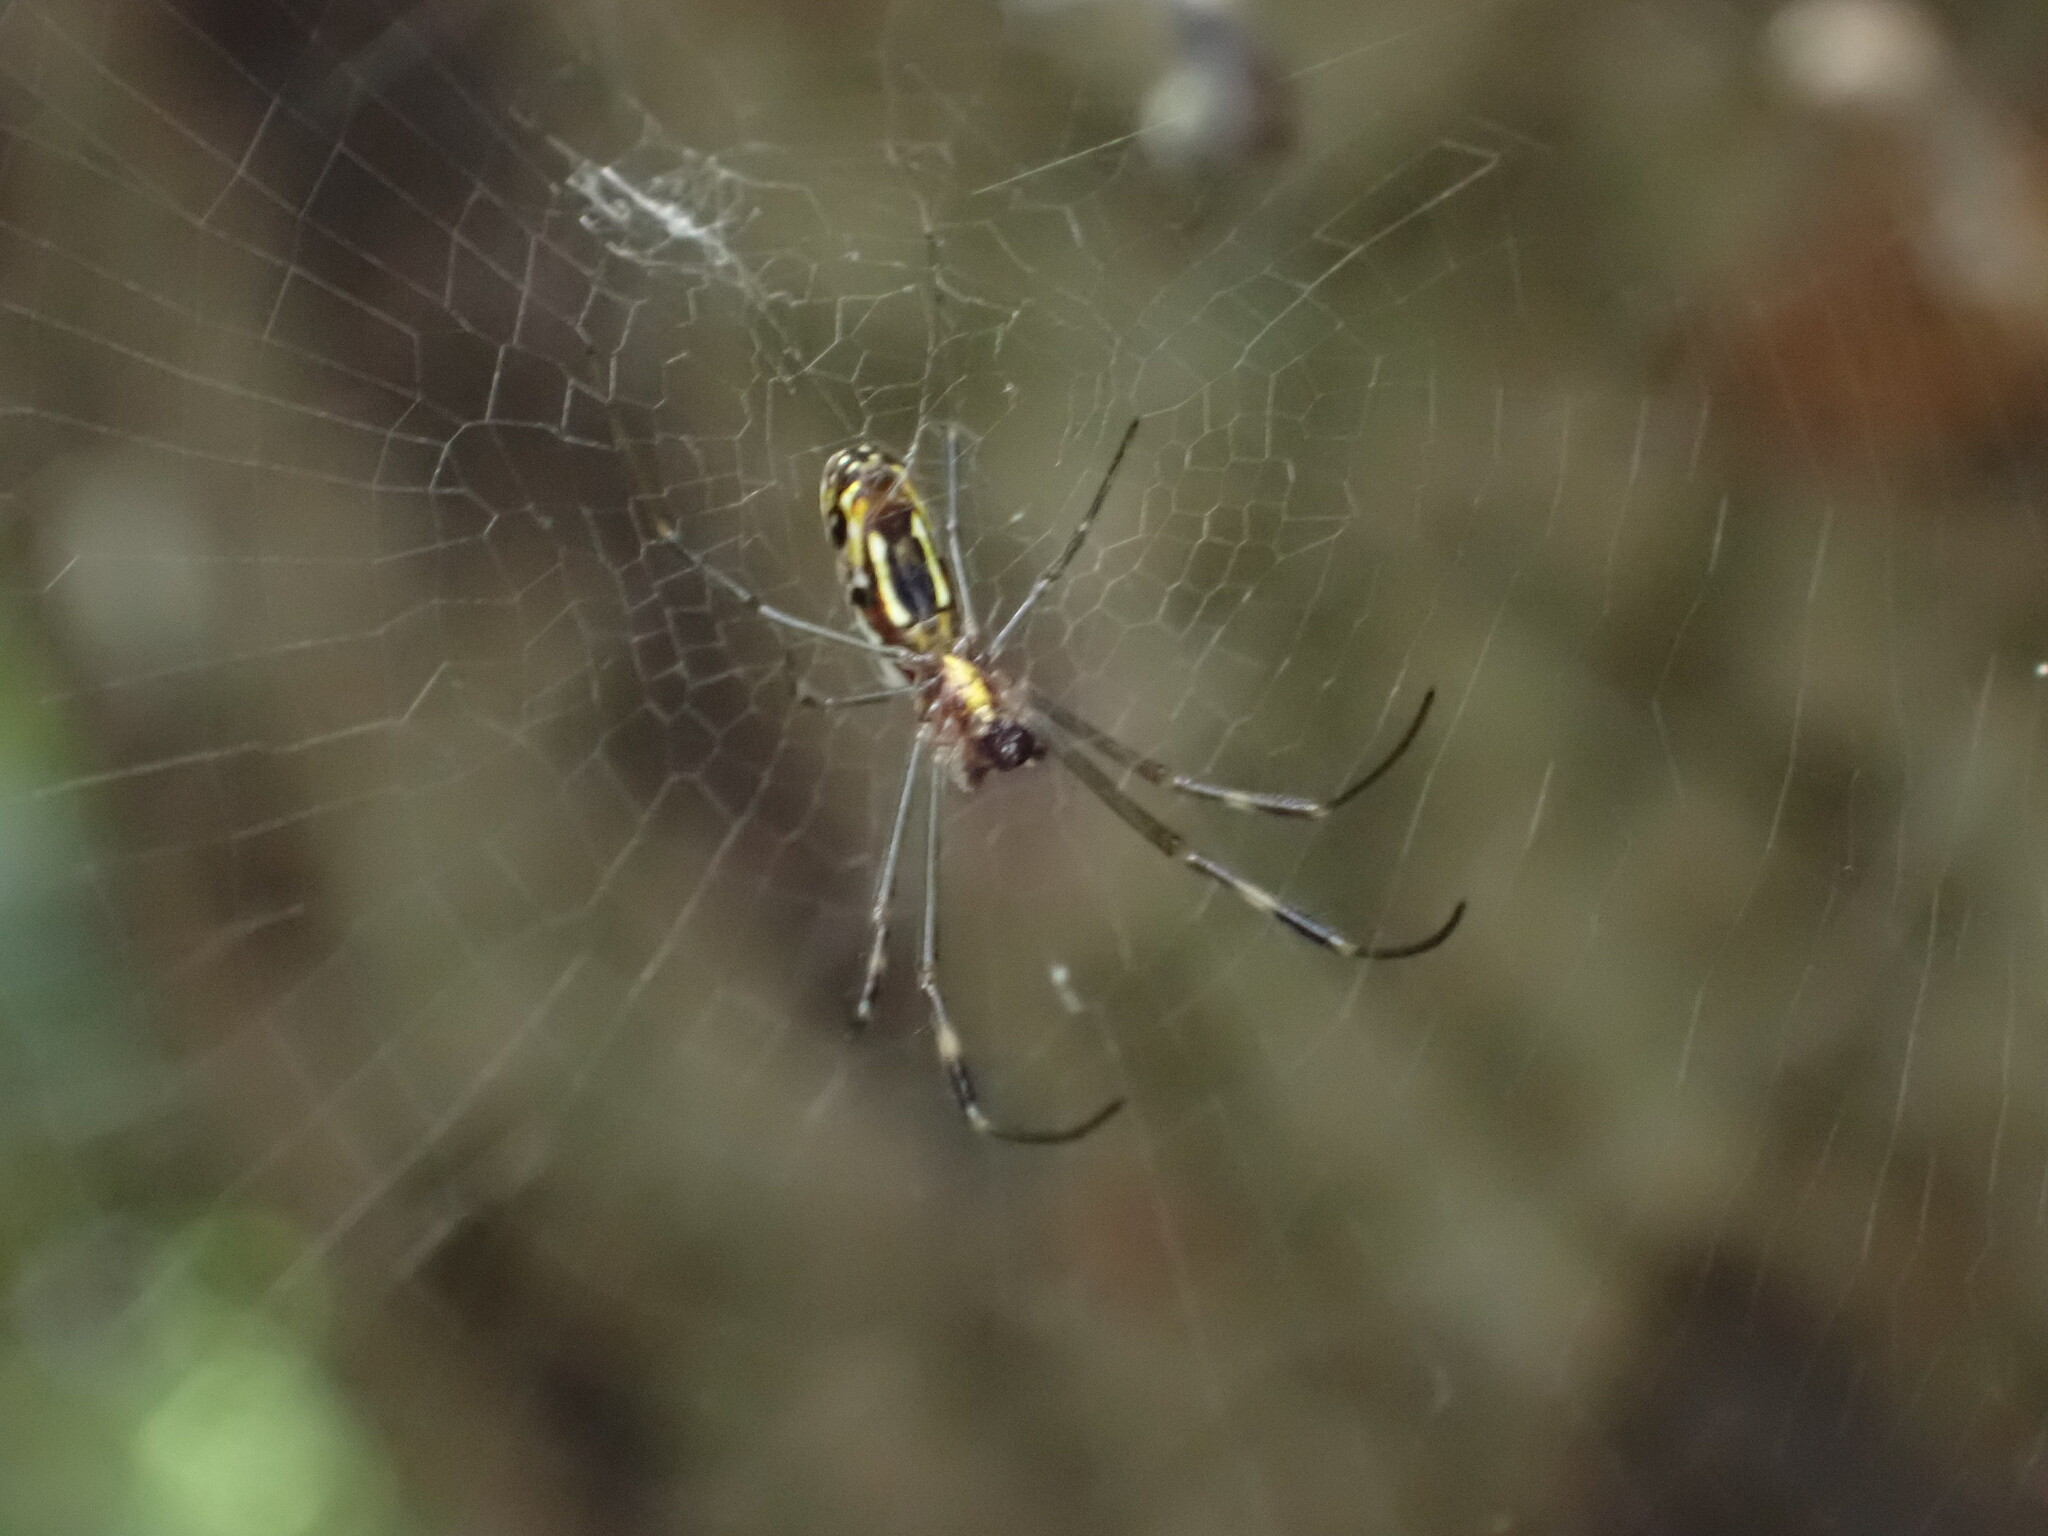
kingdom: Animalia
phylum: Arthropoda
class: Arachnida
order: Araneae
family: Araneidae
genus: Trichonephila
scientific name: Trichonephila clavipes
